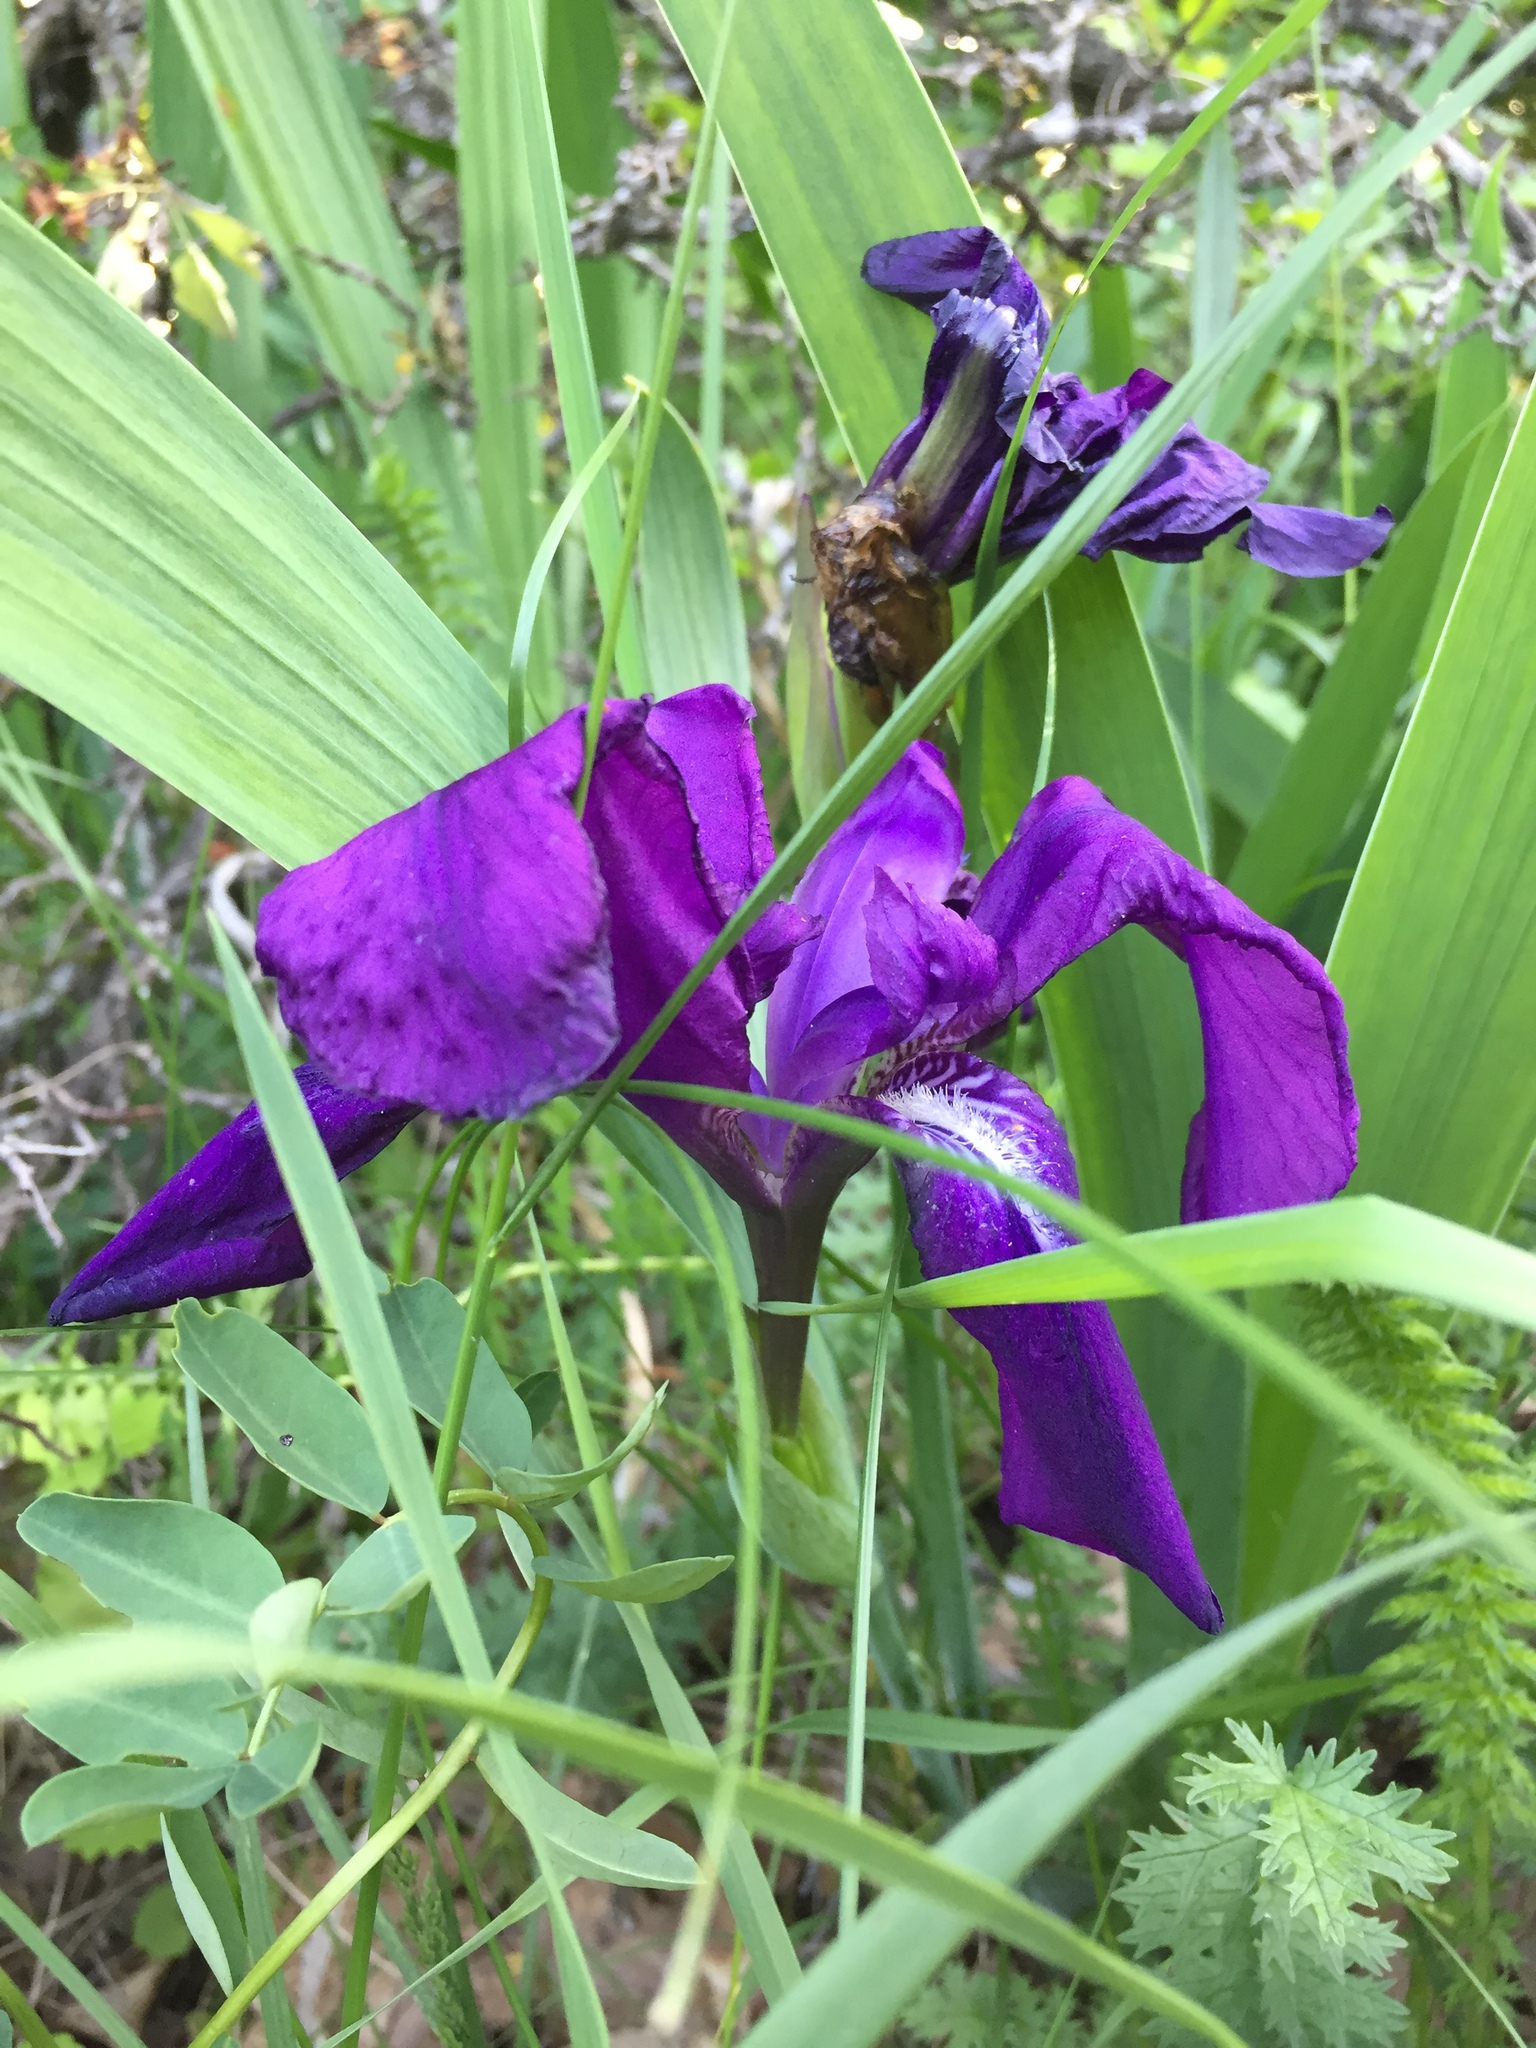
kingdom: Plantae
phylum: Tracheophyta
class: Liliopsida
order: Asparagales
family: Iridaceae
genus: Iris
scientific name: Iris aphylla
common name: Stool iris
